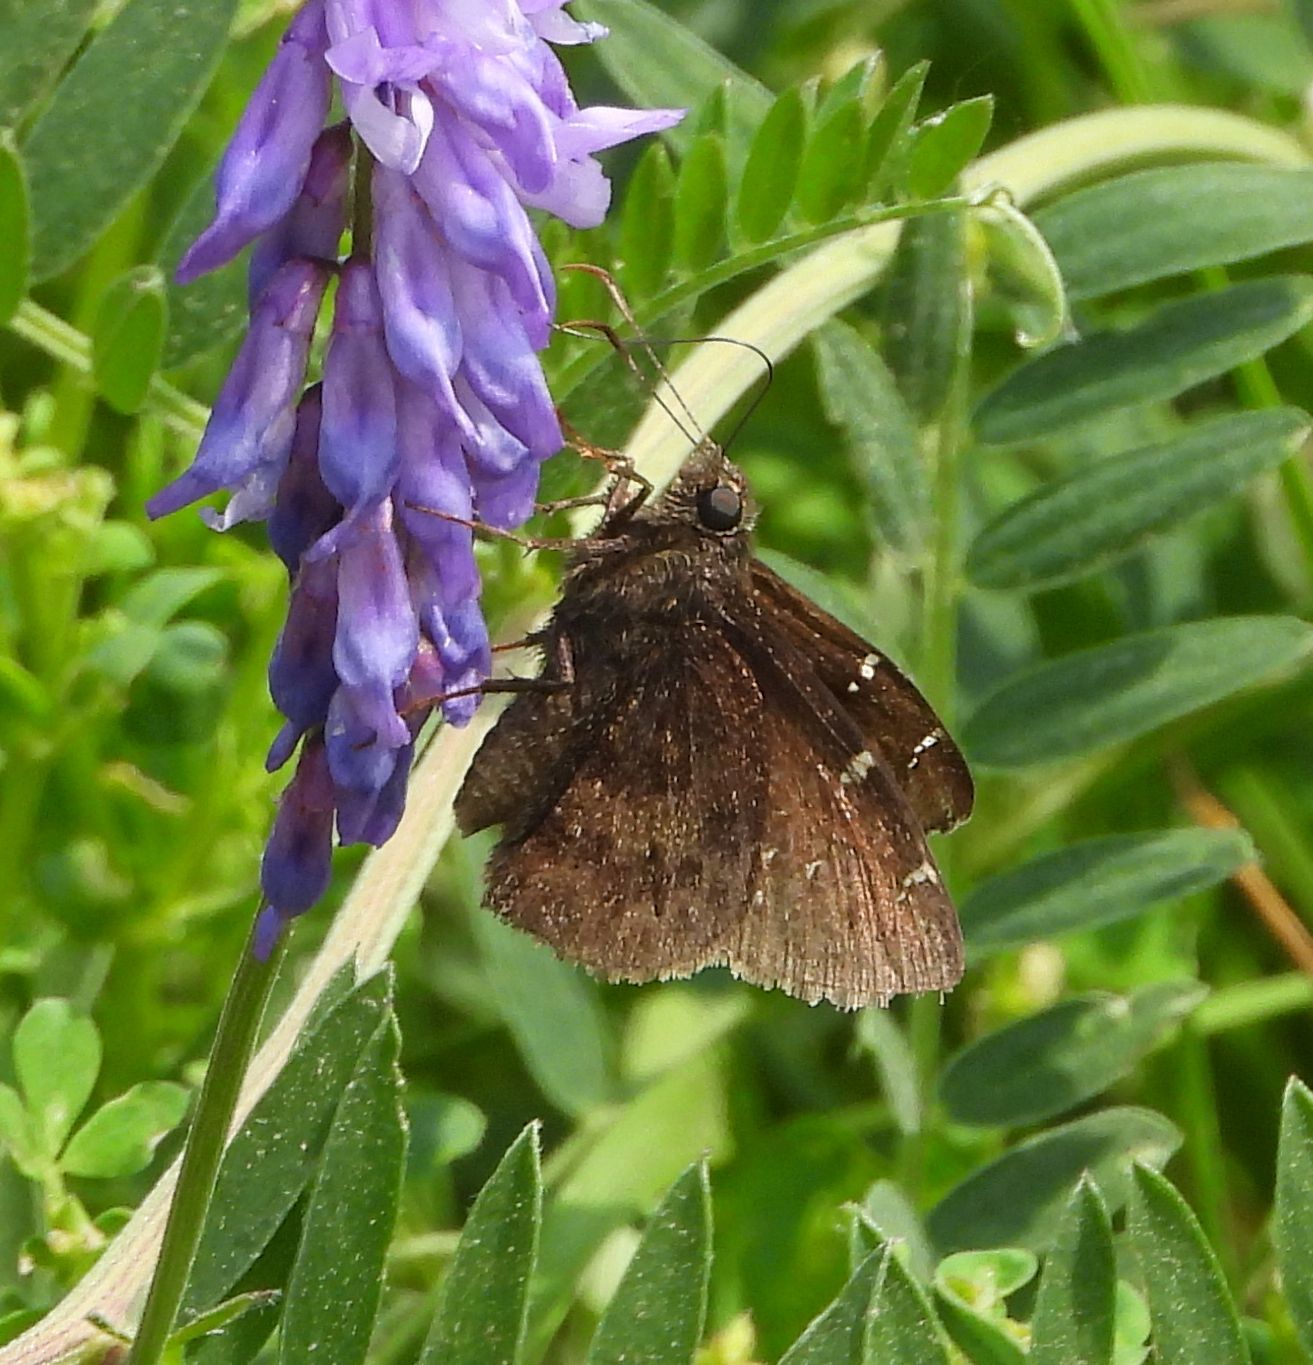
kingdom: Animalia
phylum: Arthropoda
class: Insecta
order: Lepidoptera
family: Hesperiidae
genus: Thorybes
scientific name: Thorybes pylades
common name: Northern cloudywing
